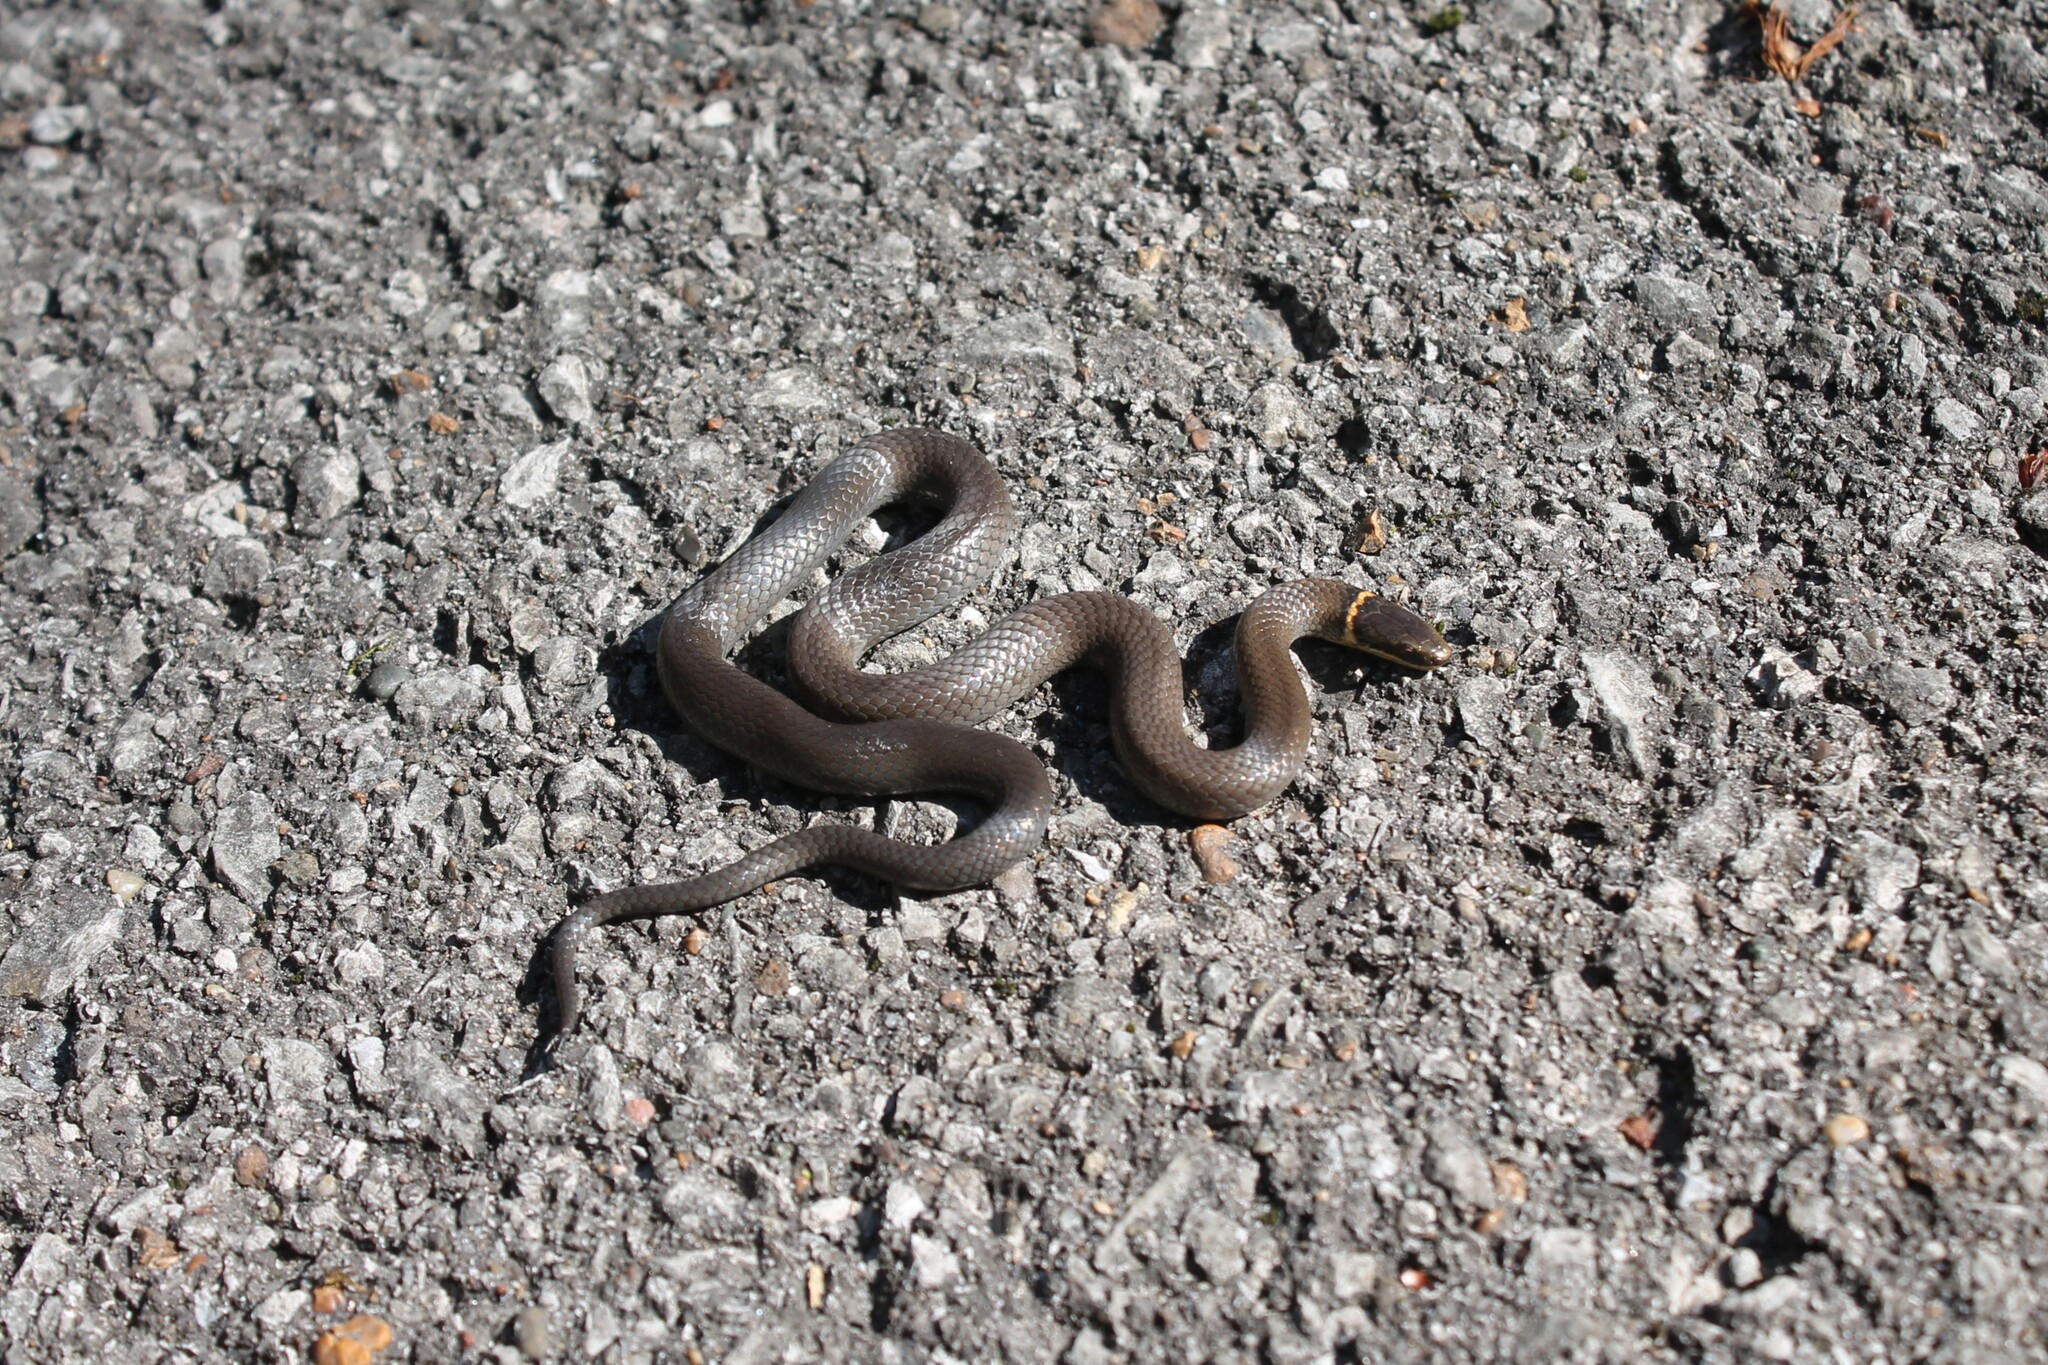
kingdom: Animalia
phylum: Chordata
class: Squamata
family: Colubridae
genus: Diadophis
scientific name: Diadophis punctatus
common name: Ringneck snake
